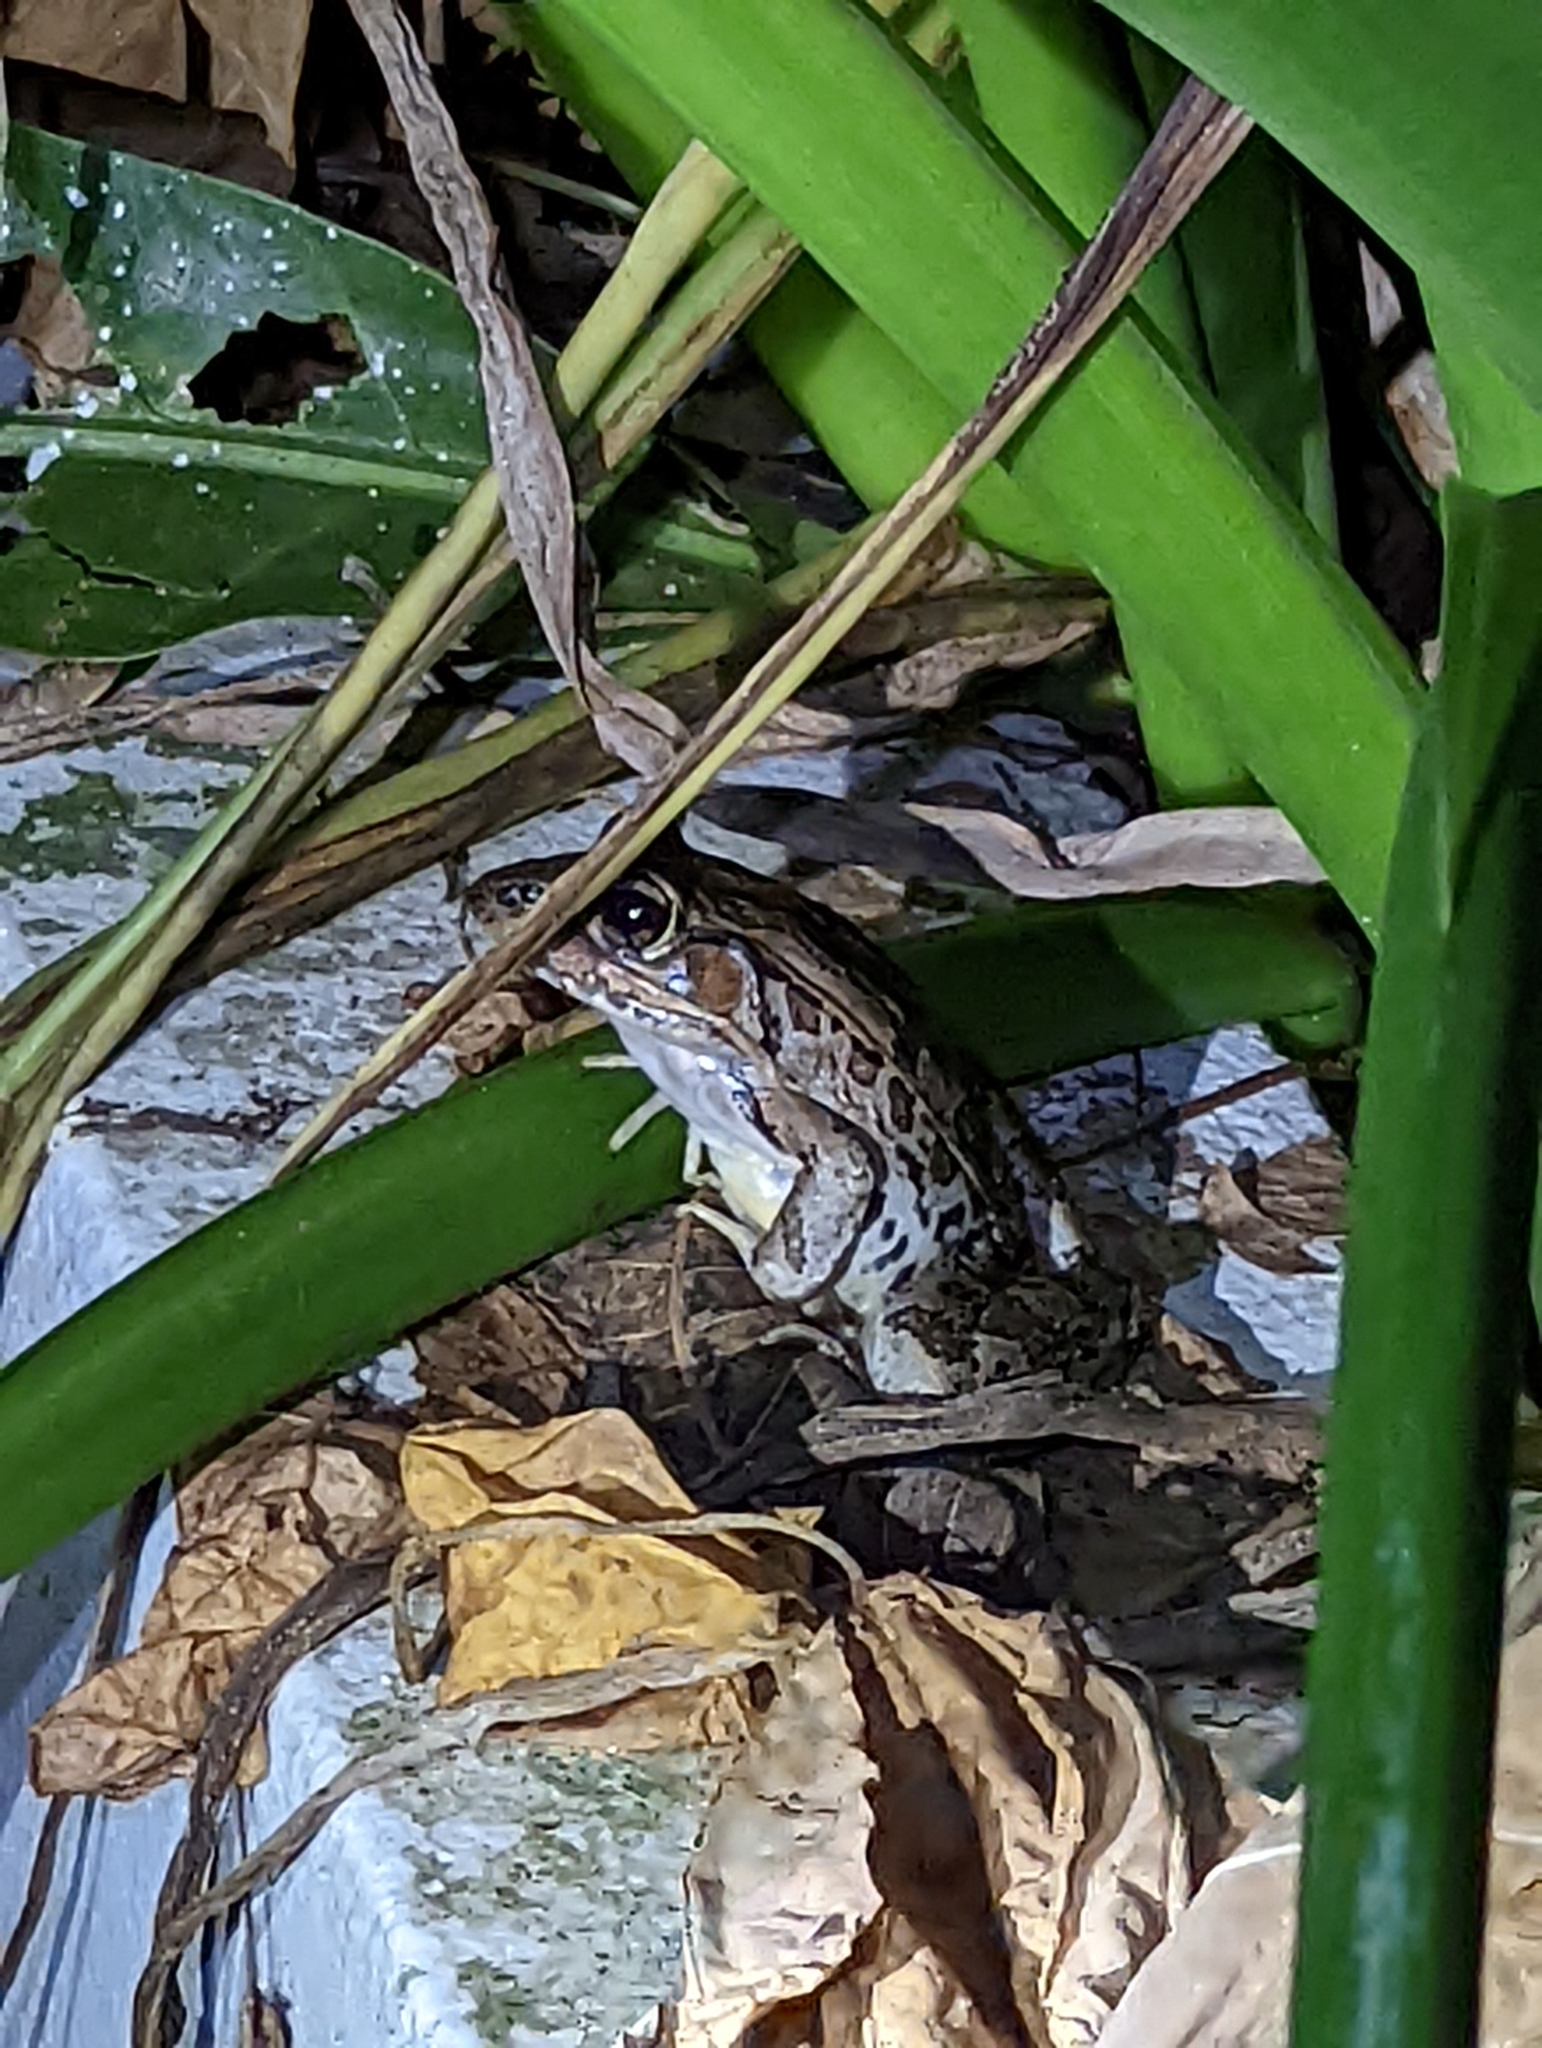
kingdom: Animalia
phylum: Chordata
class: Amphibia
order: Anura
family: Ranidae
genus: Lithobates
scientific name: Lithobates brownorum
